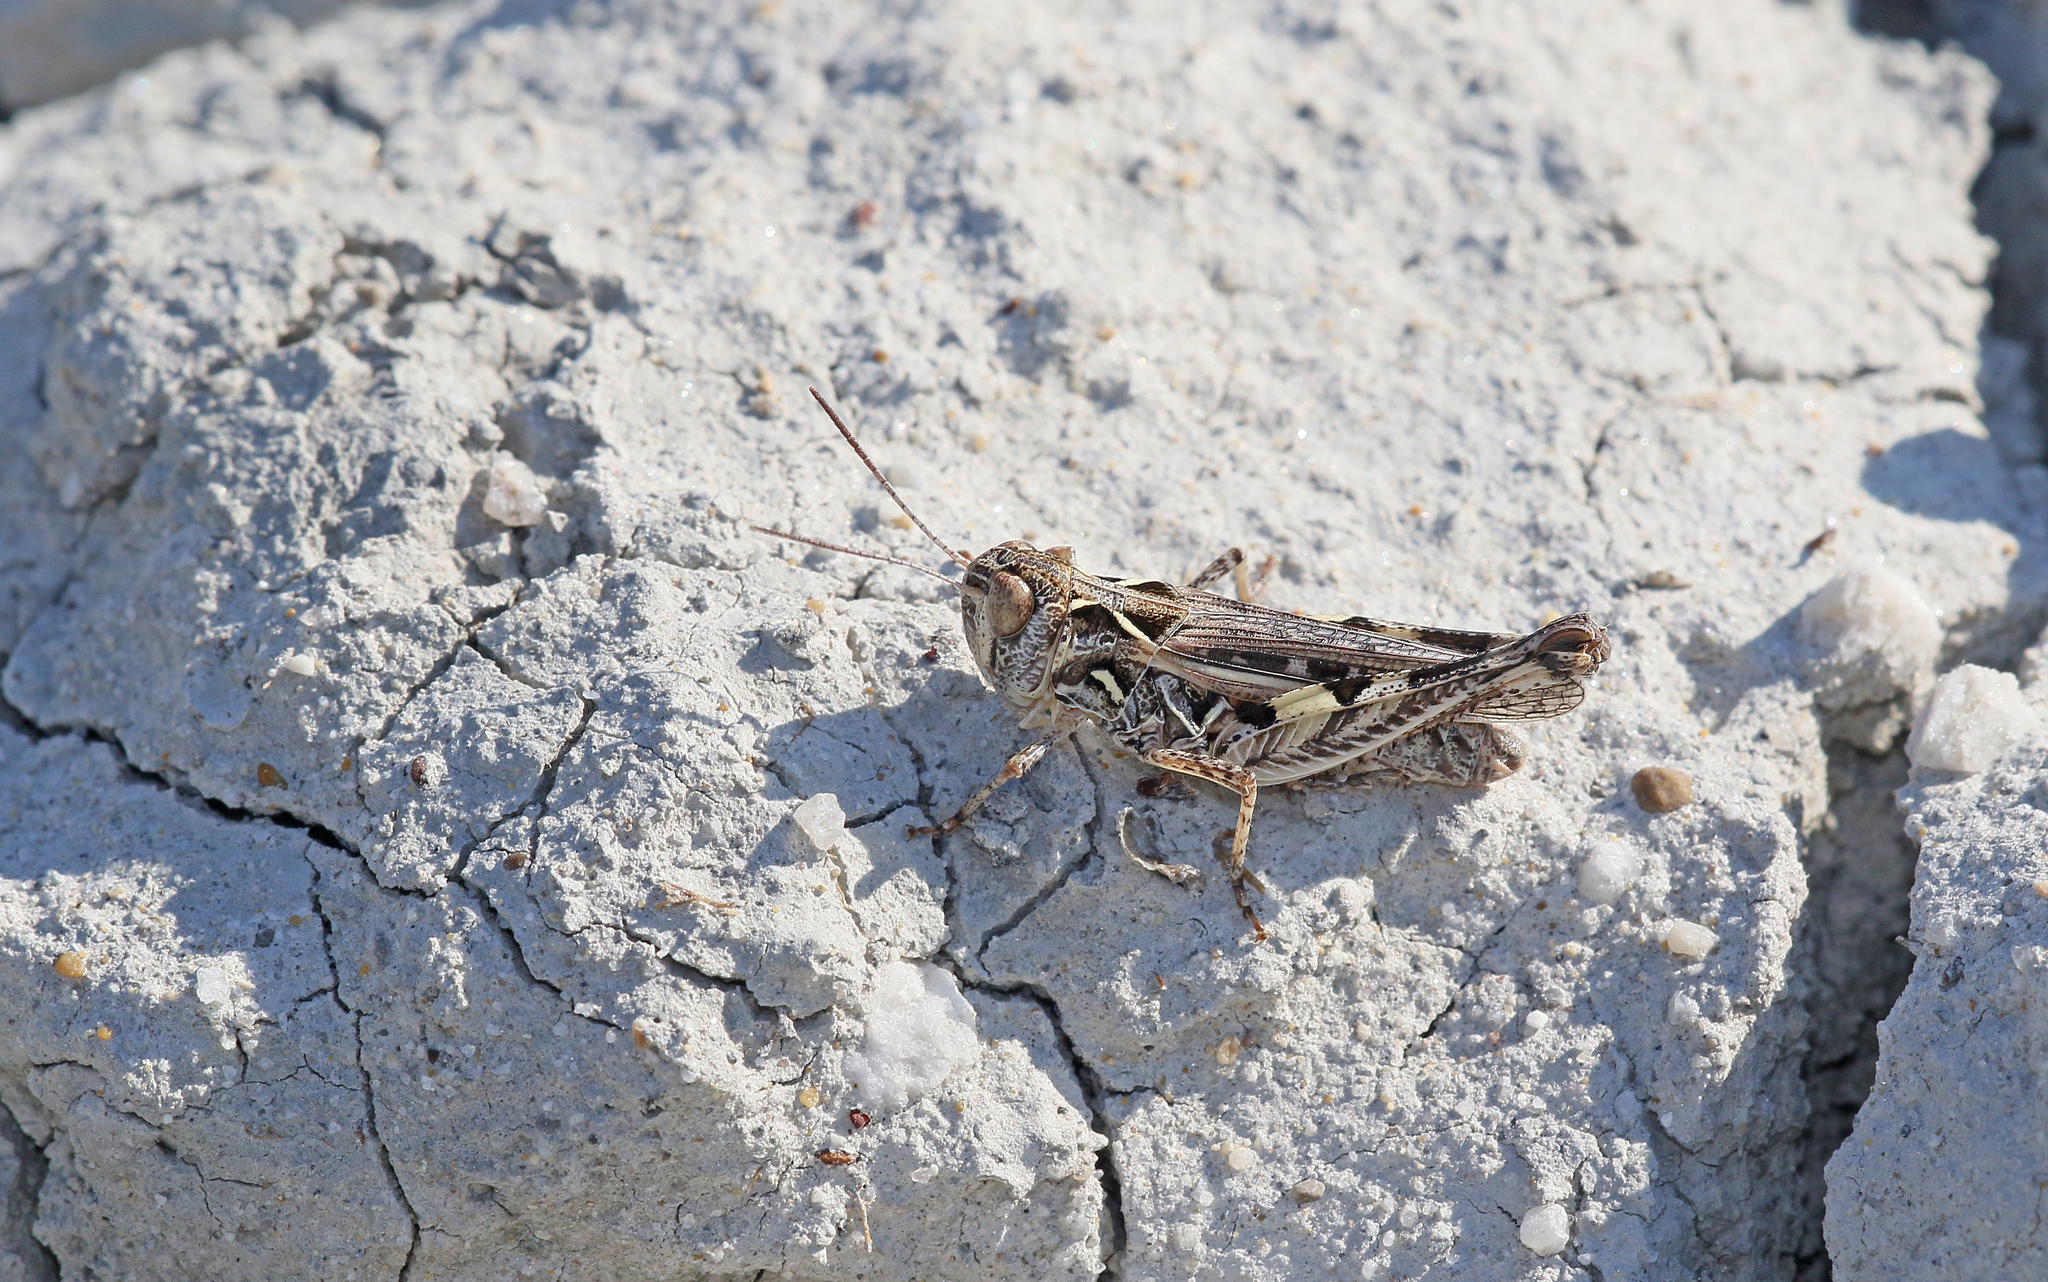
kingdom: Animalia
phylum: Arthropoda
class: Insecta
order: Orthoptera
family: Acrididae
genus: Dociostaurus
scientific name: Dociostaurus brevicollis
